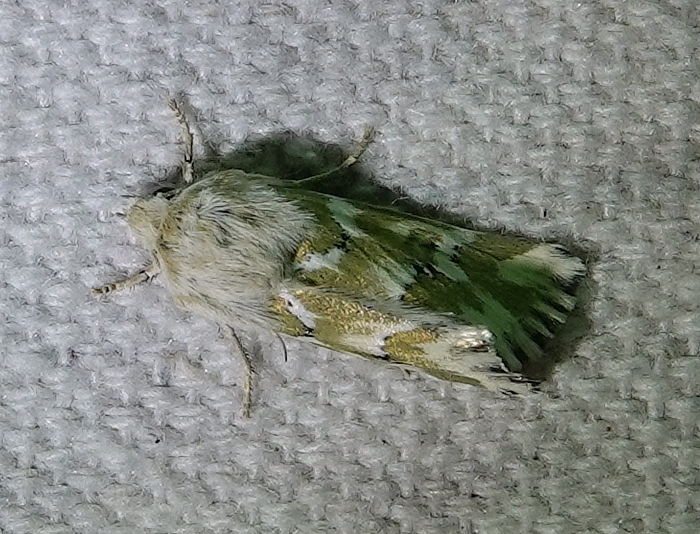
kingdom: Animalia
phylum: Arthropoda
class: Insecta
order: Lepidoptera
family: Noctuidae
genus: Schinia
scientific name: Schinia meadi
